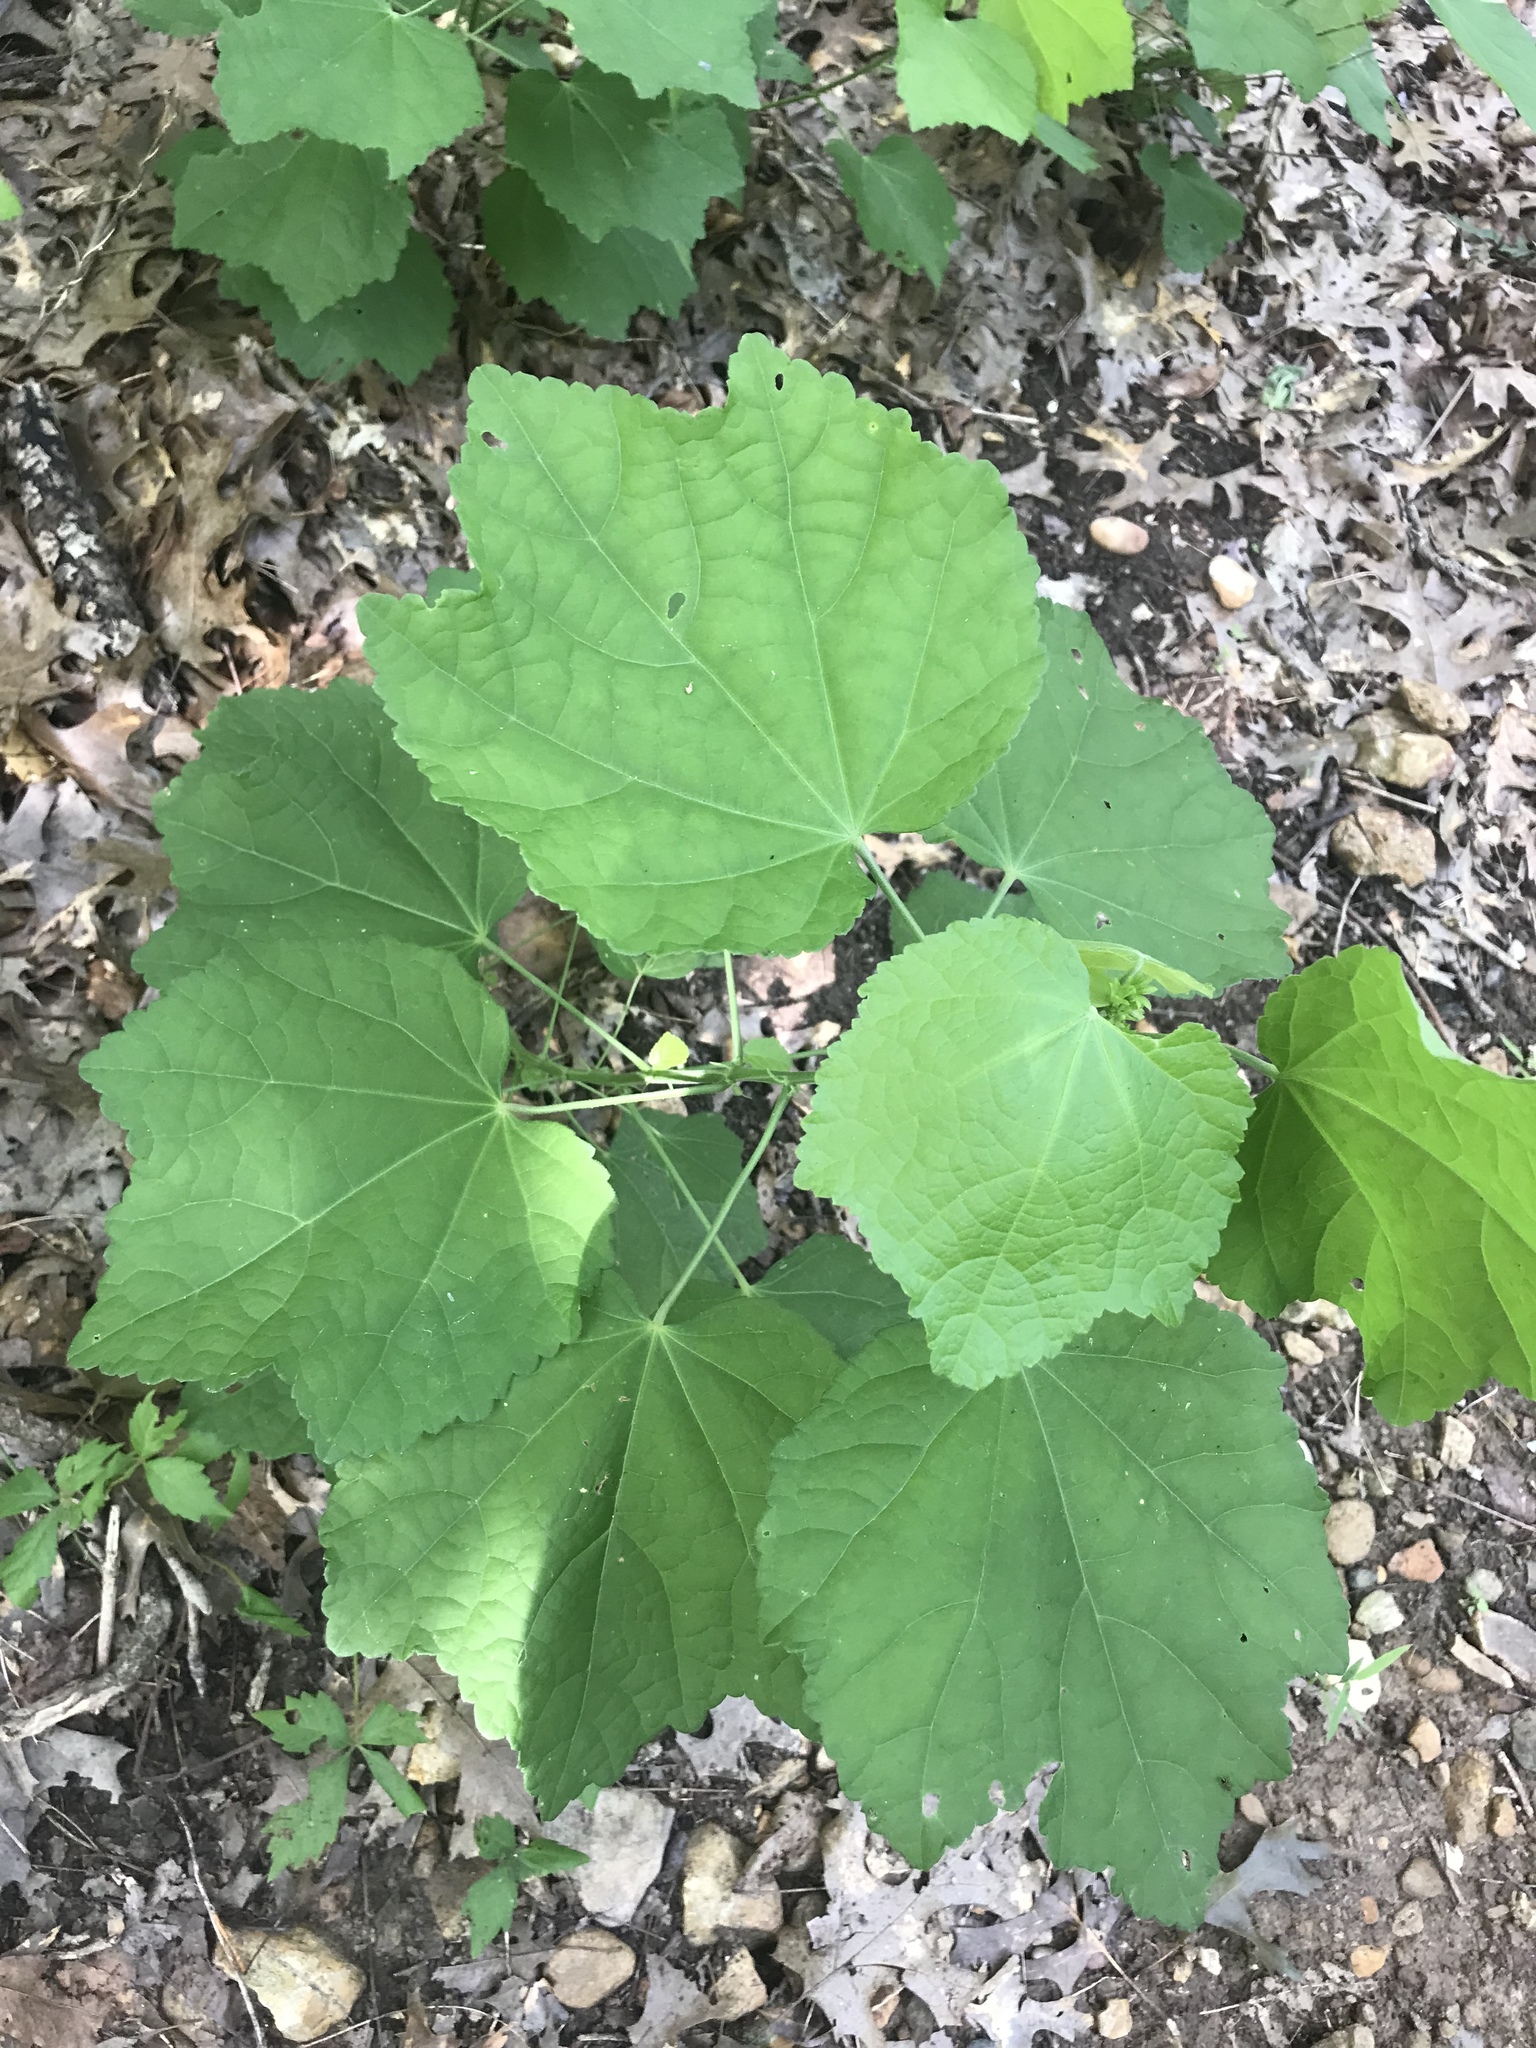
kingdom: Plantae
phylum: Tracheophyta
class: Magnoliopsida
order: Malvales
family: Malvaceae
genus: Malvaviscus
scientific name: Malvaviscus arboreus
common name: Wax mallow
